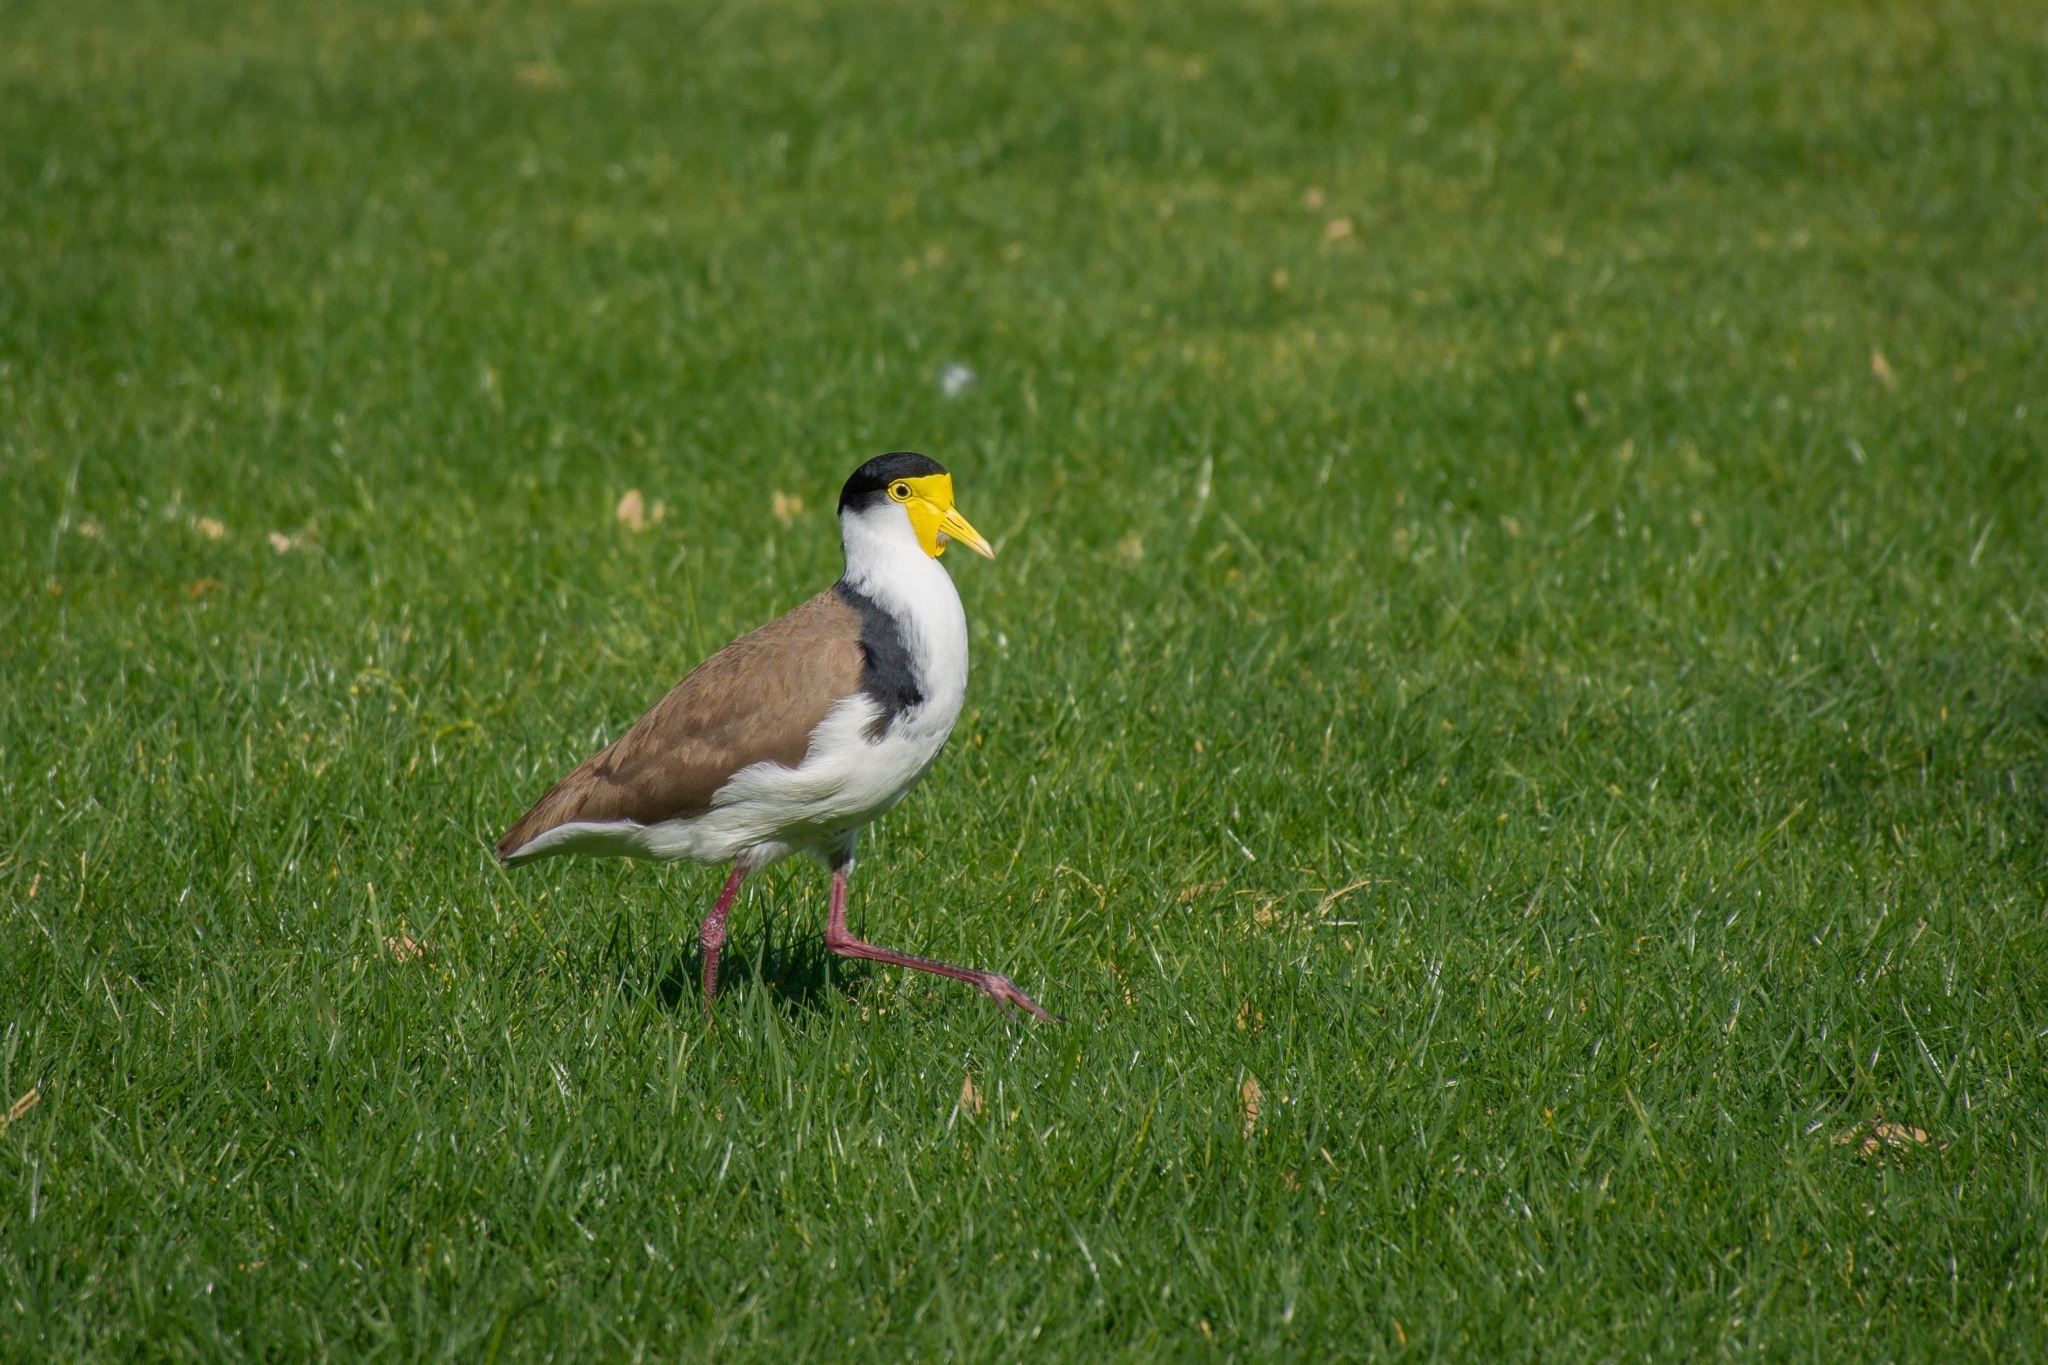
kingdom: Animalia
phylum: Chordata
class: Aves
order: Charadriiformes
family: Charadriidae
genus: Vanellus
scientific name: Vanellus miles
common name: Masked lapwing
